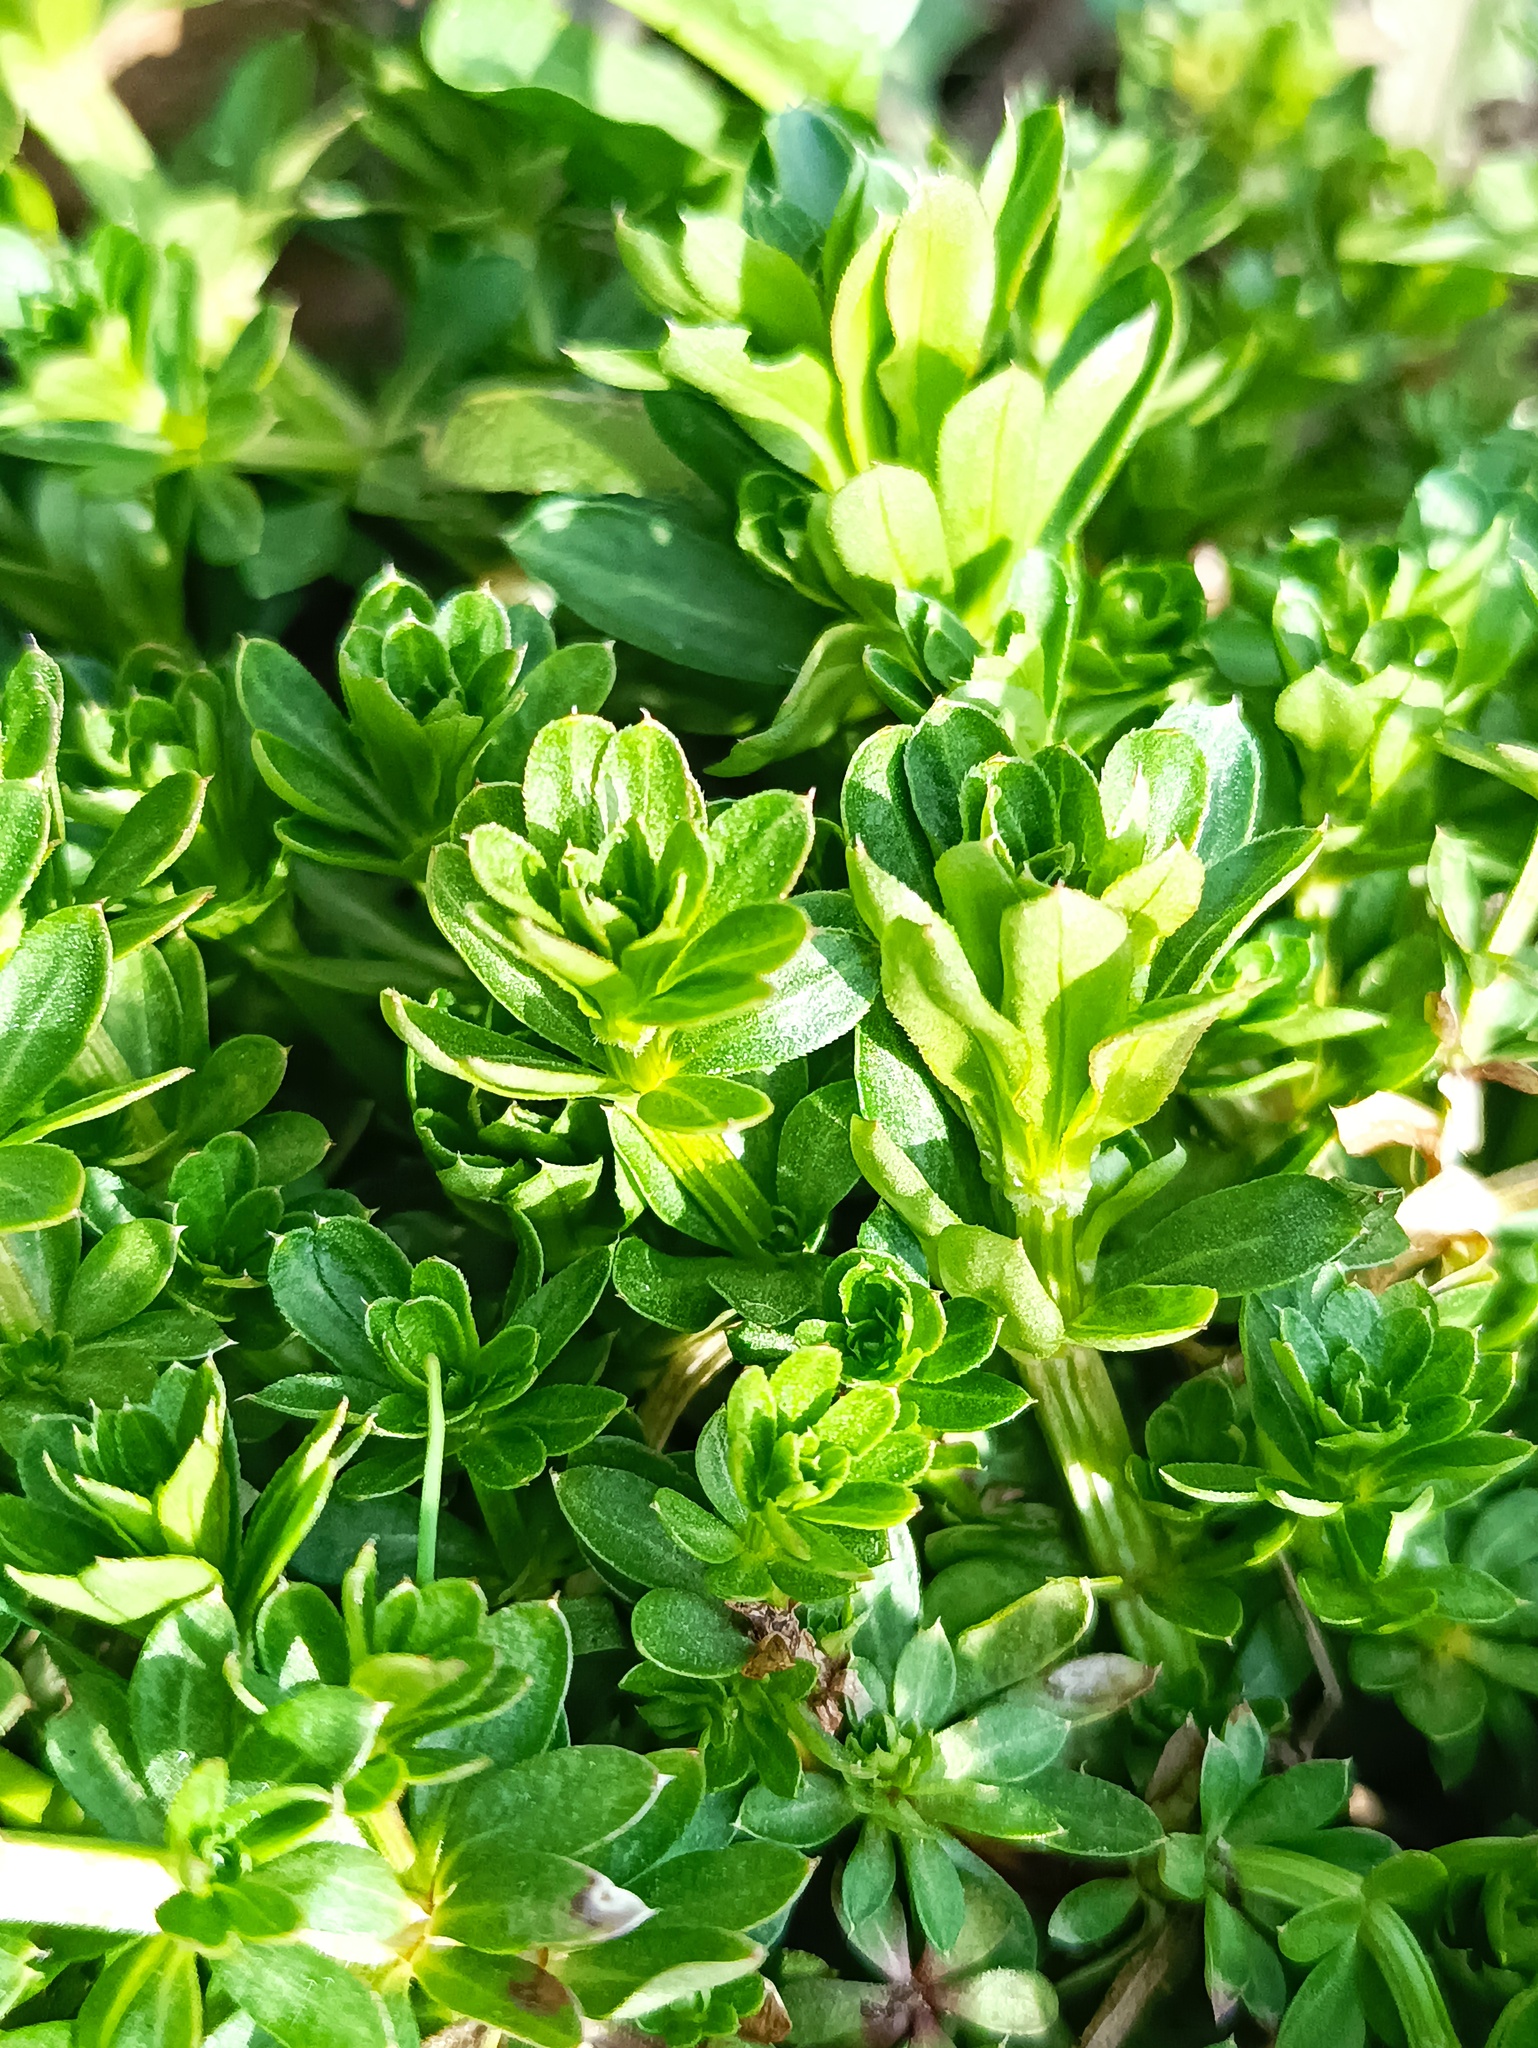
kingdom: Plantae
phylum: Tracheophyta
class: Magnoliopsida
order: Gentianales
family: Rubiaceae
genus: Galium
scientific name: Galium mollugo
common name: Hedge bedstraw
